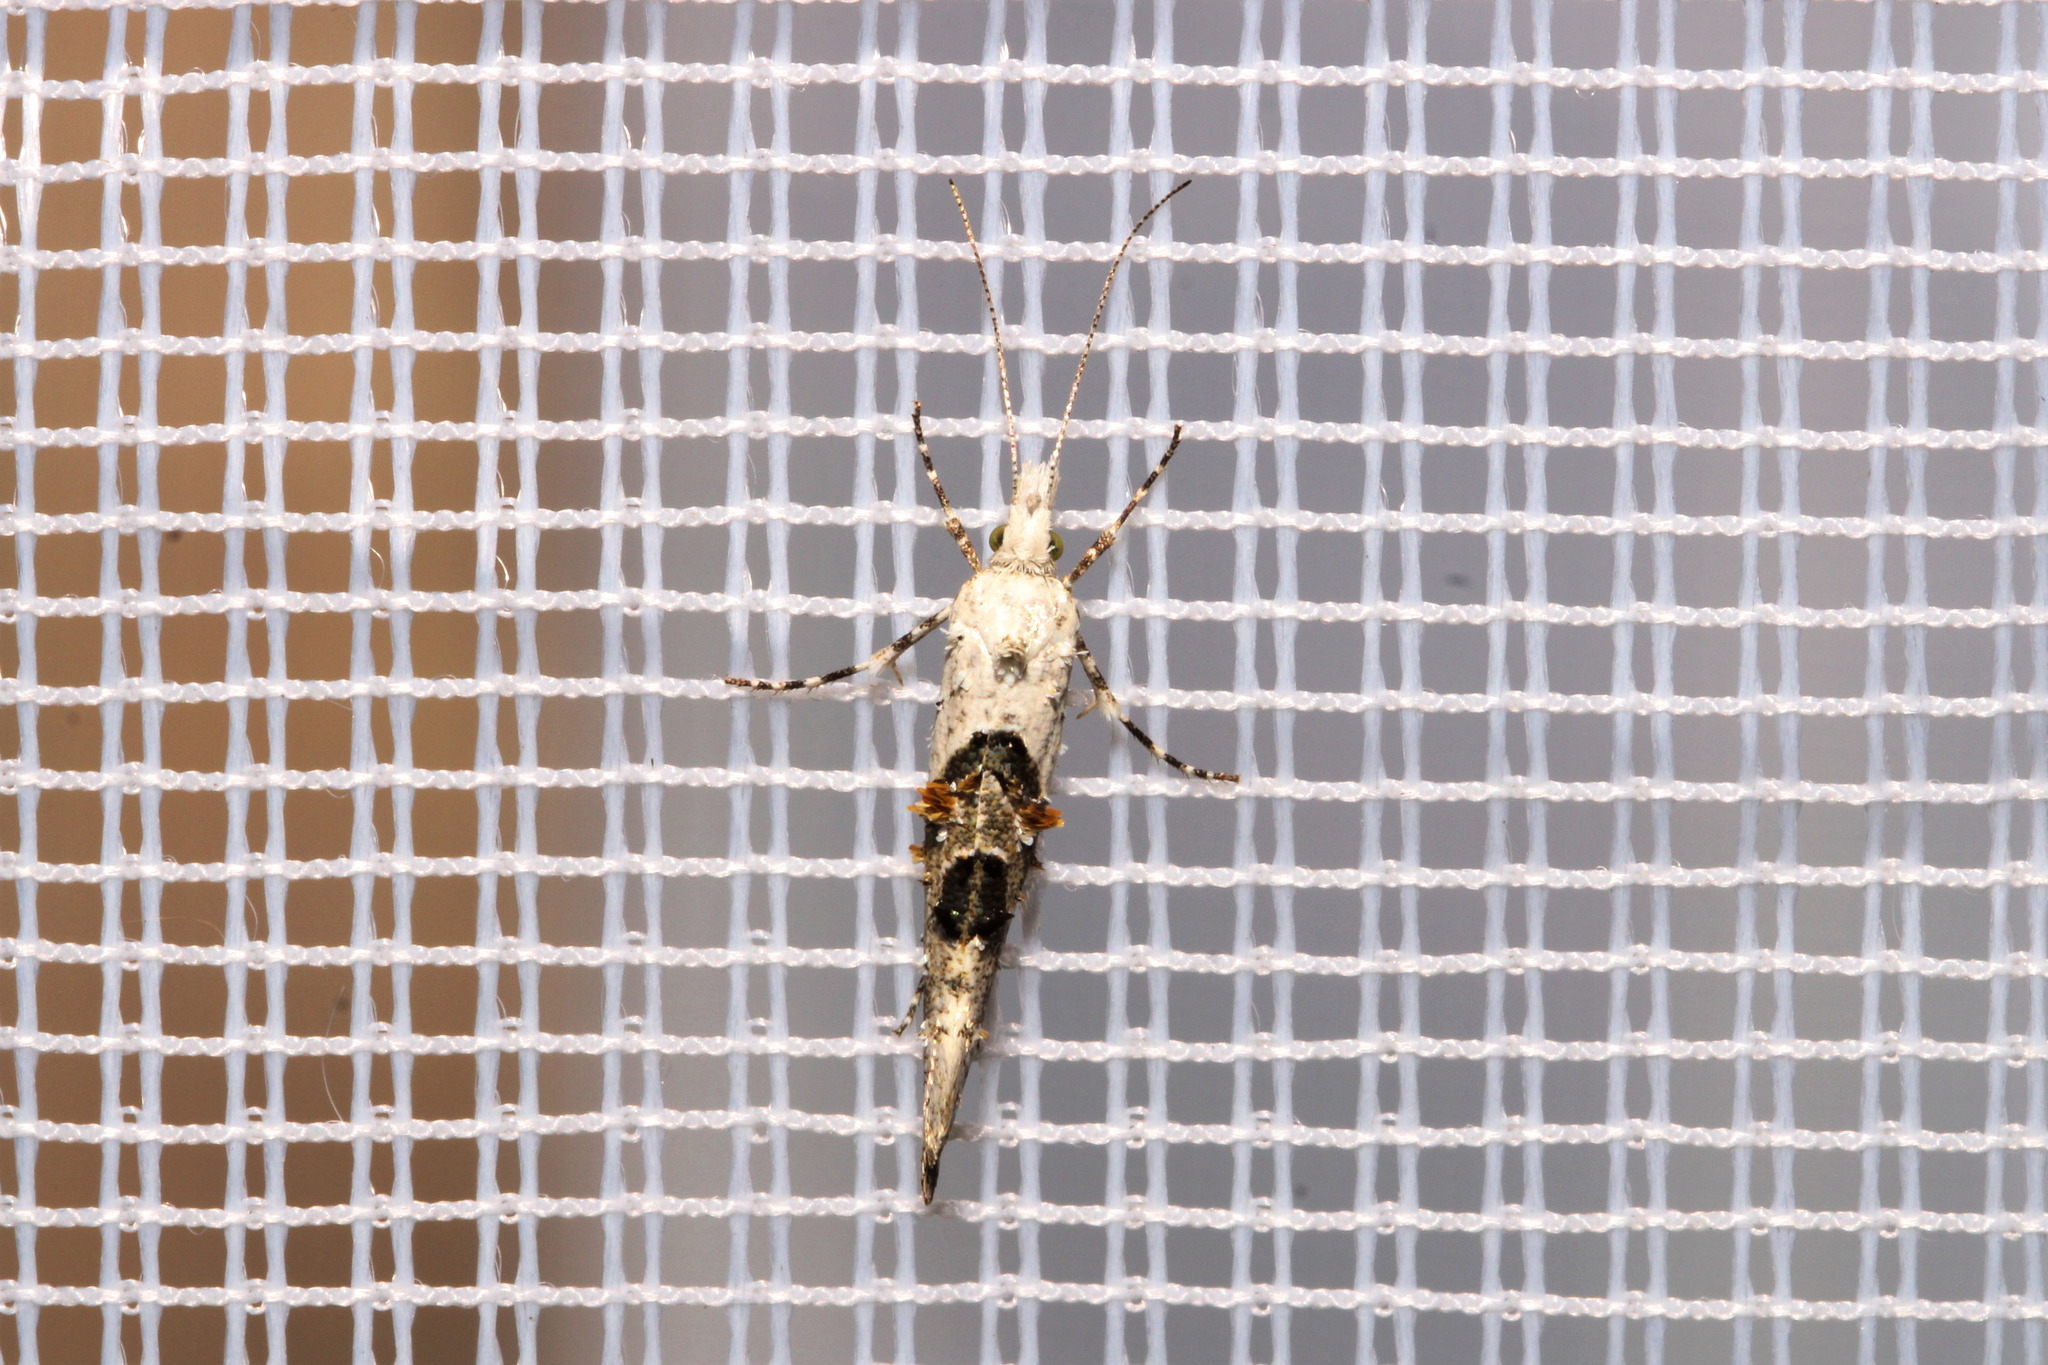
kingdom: Animalia
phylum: Arthropoda
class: Insecta
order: Lepidoptera
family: Plutellidae
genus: Ypsolophus
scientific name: Ypsolophus asperella
